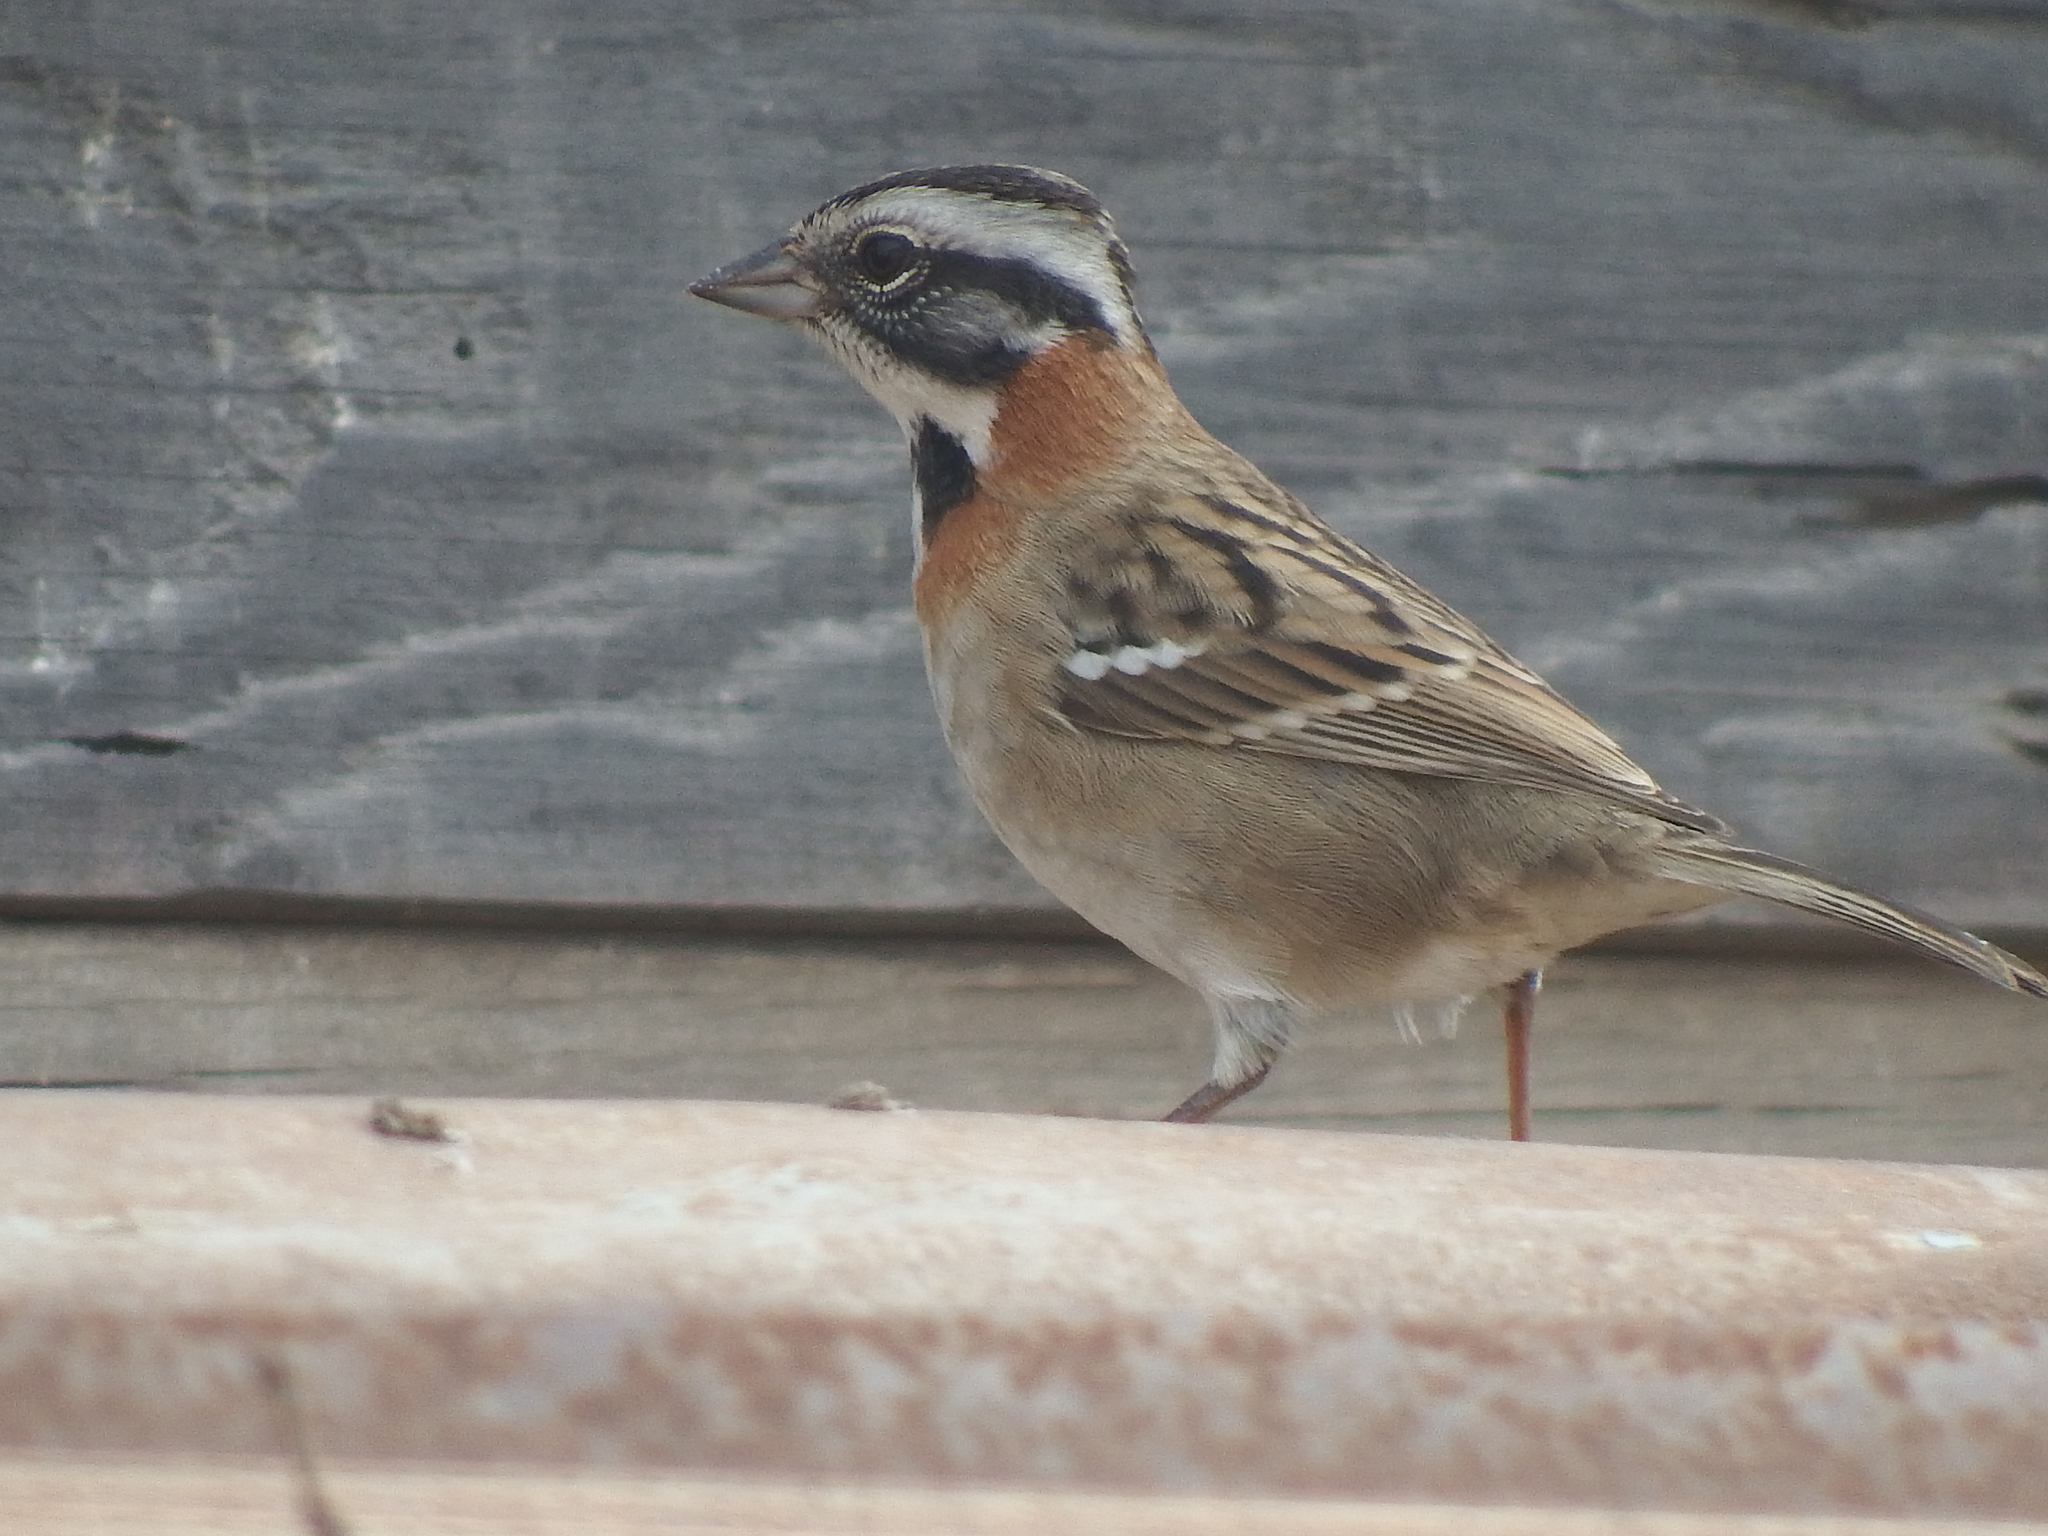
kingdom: Animalia
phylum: Chordata
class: Aves
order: Passeriformes
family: Passerellidae
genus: Zonotrichia
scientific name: Zonotrichia capensis
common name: Rufous-collared sparrow
